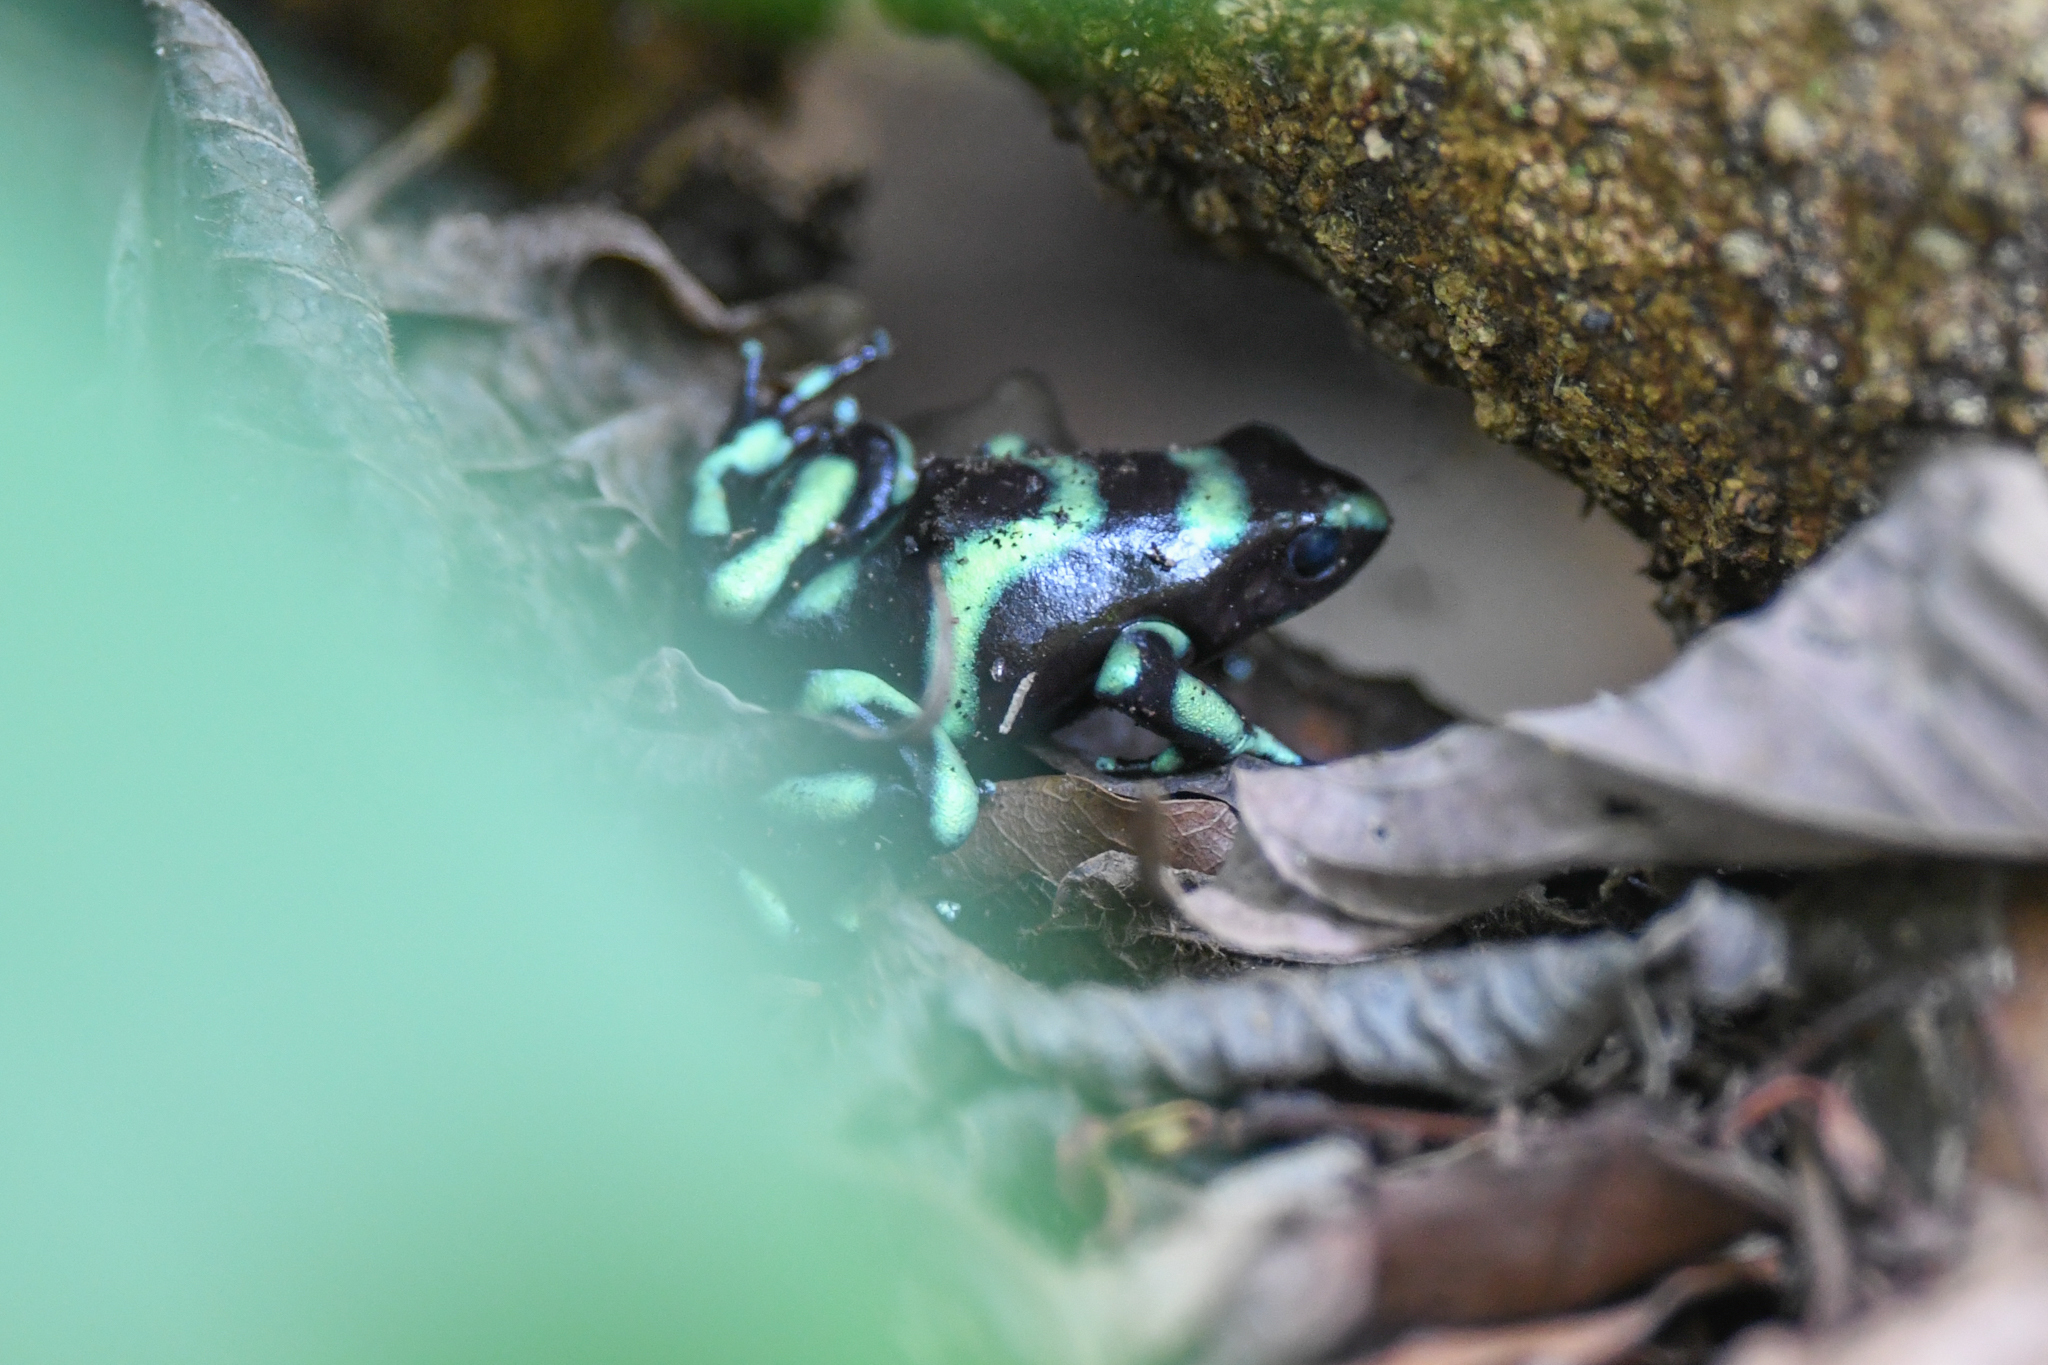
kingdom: Animalia
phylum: Chordata
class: Amphibia
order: Anura
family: Dendrobatidae
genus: Dendrobates
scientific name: Dendrobates auratus
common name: Green and black poison dart frog
